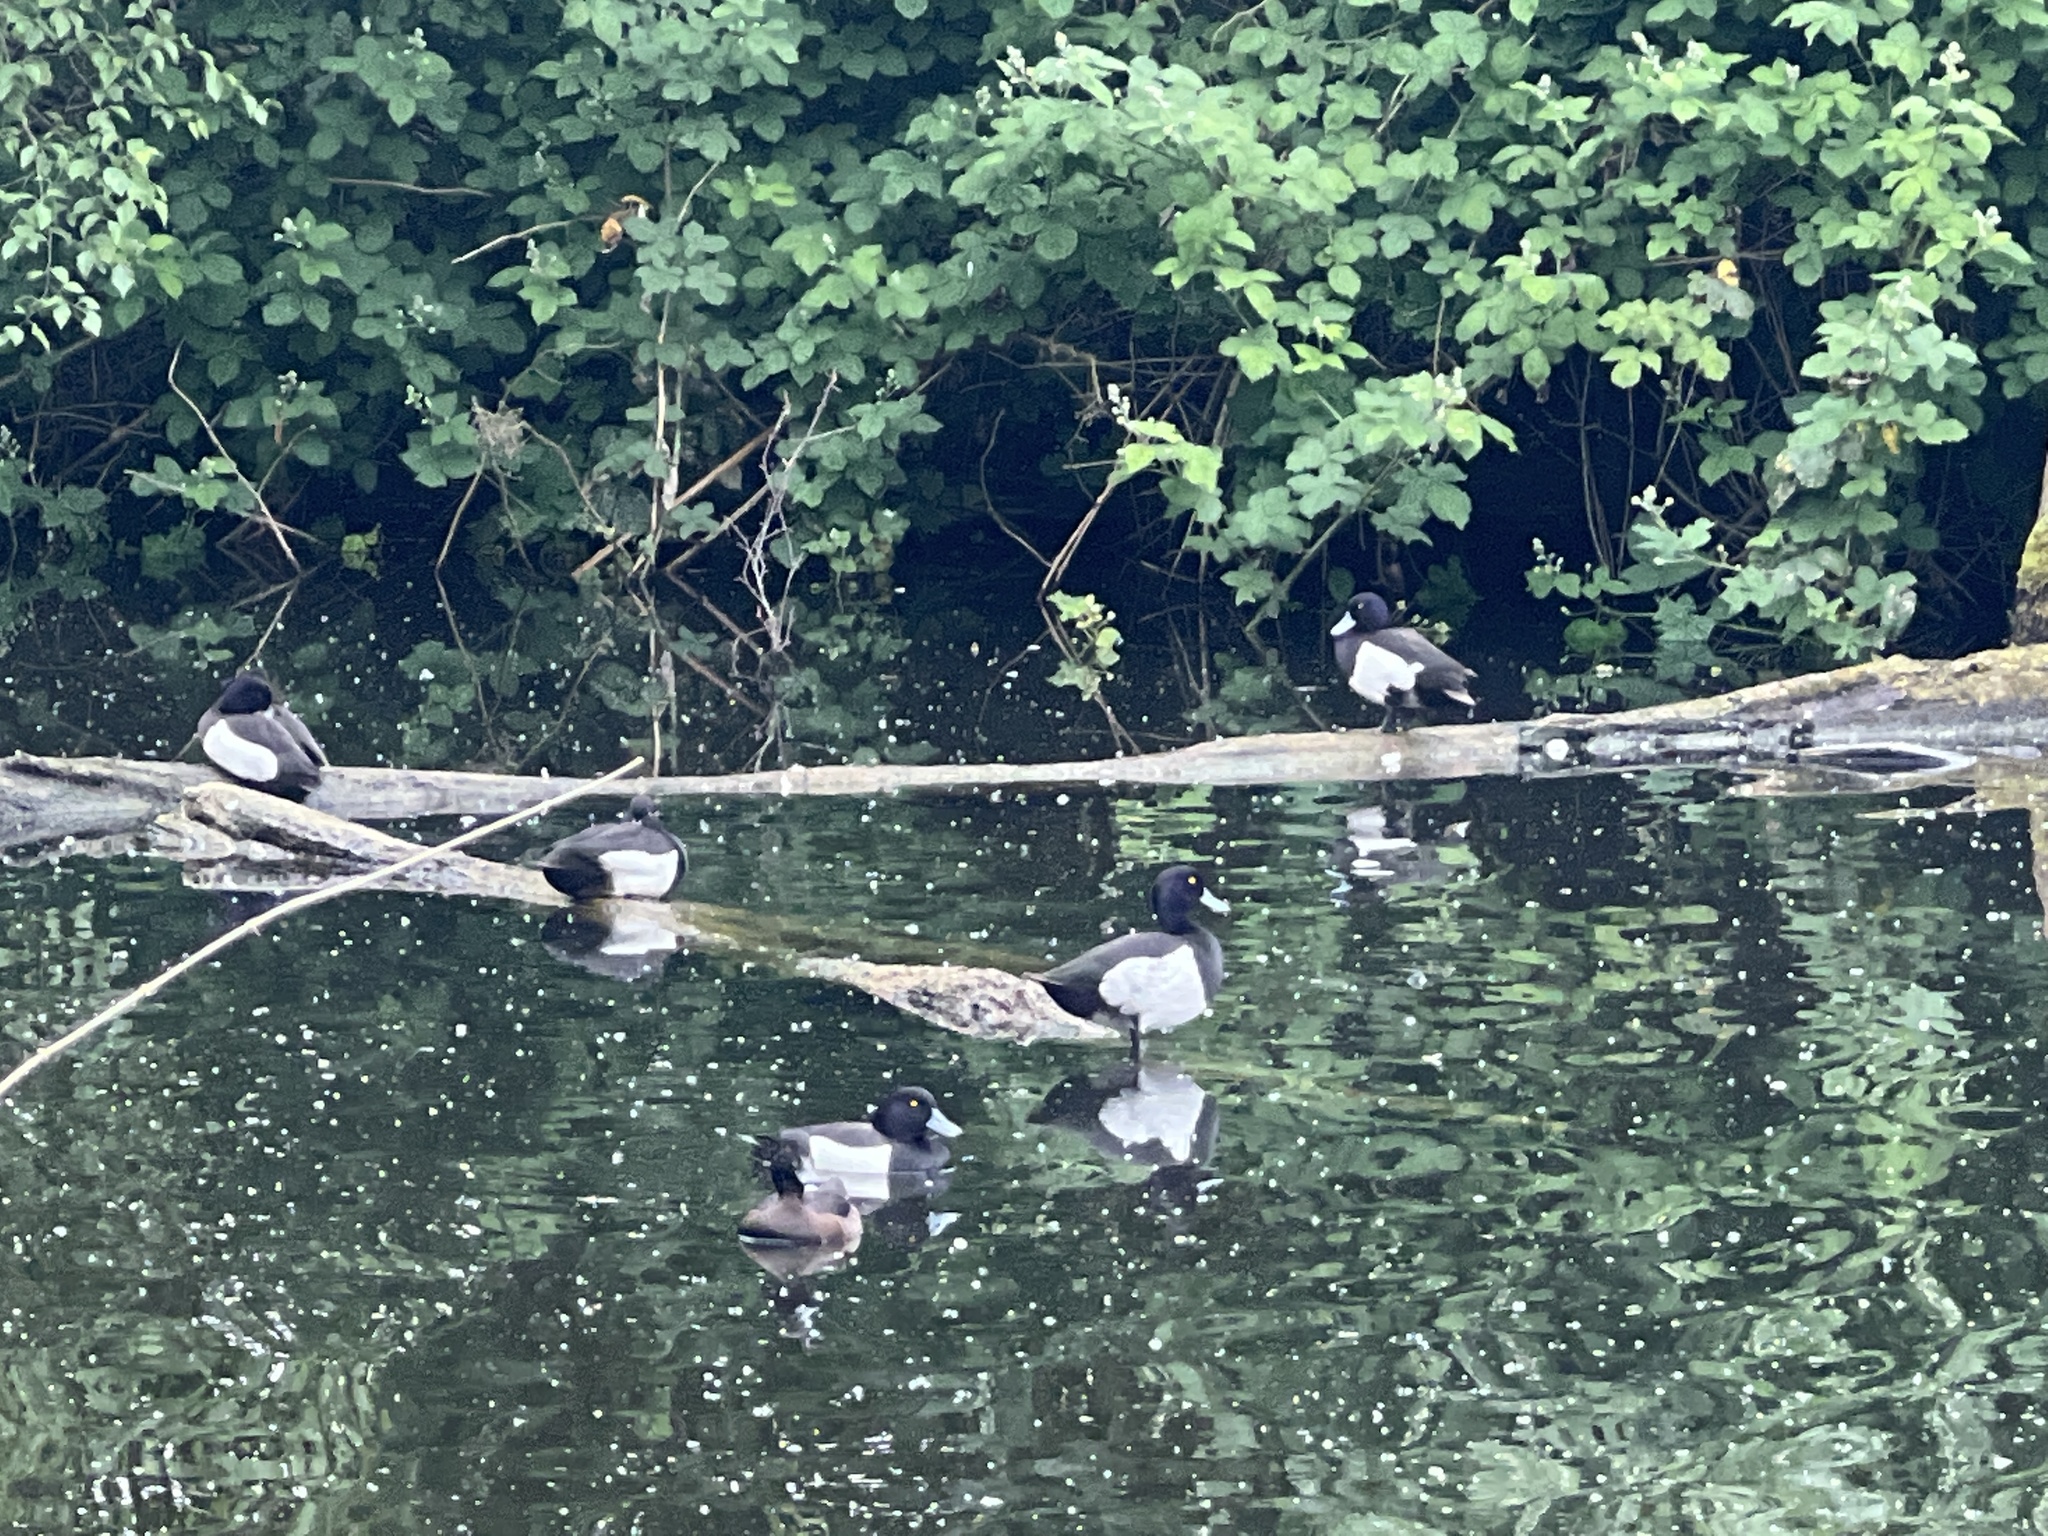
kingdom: Animalia
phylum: Chordata
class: Aves
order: Anseriformes
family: Anatidae
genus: Aythya
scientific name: Aythya fuligula
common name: Tufted duck
